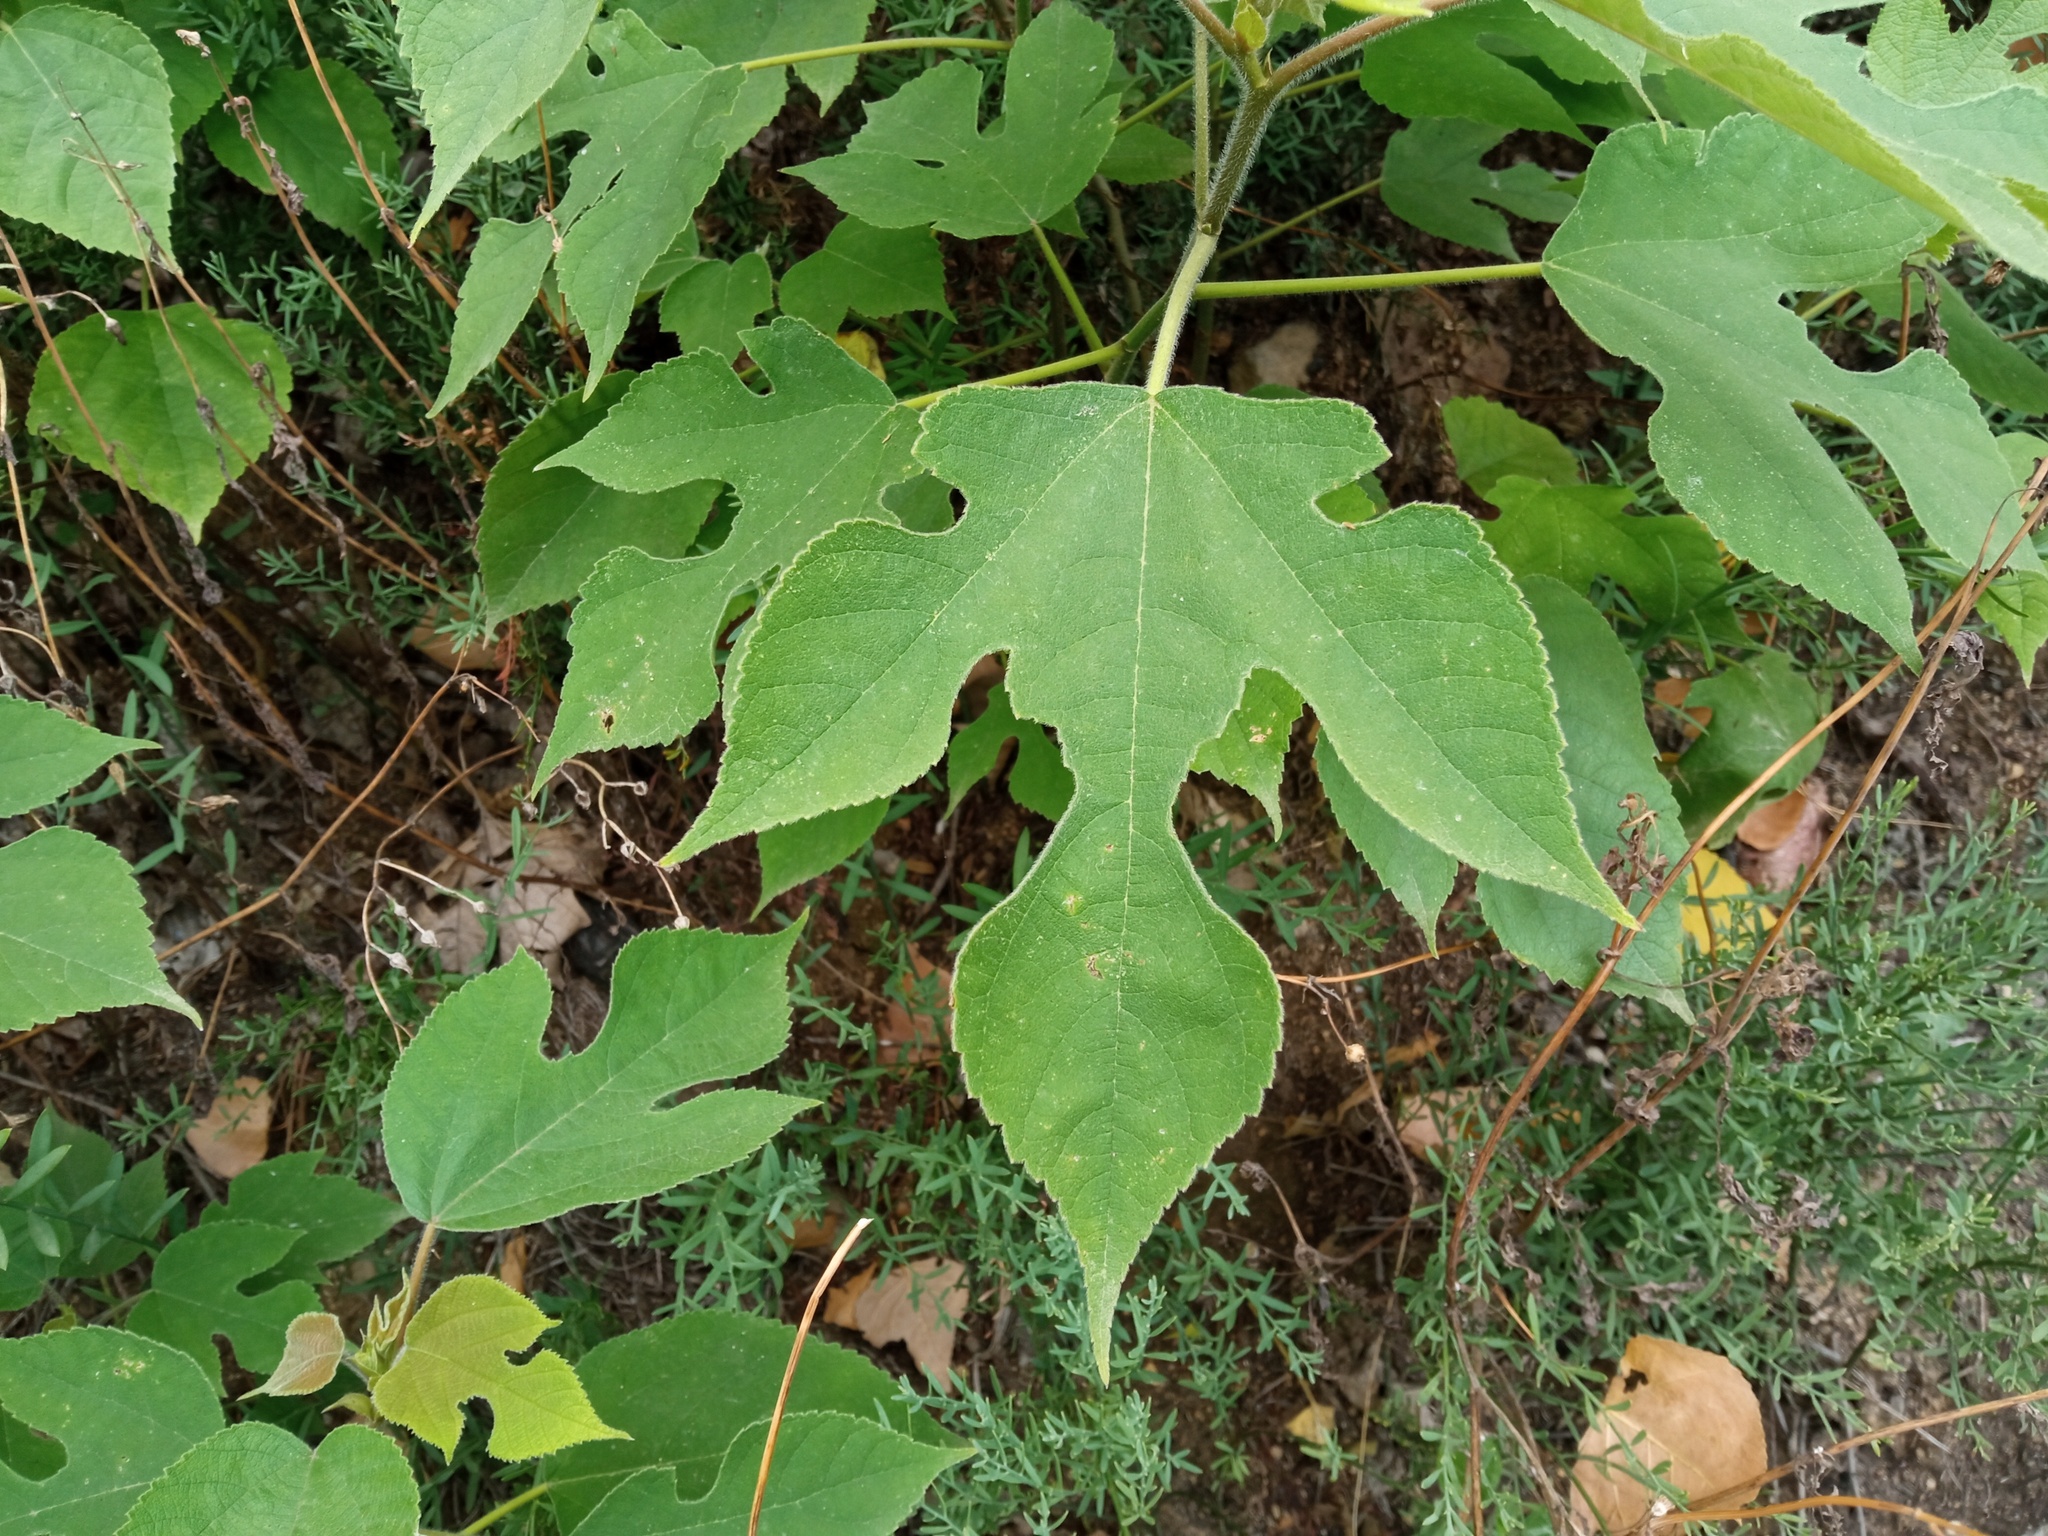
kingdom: Plantae
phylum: Tracheophyta
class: Magnoliopsida
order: Rosales
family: Moraceae
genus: Broussonetia
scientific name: Broussonetia papyrifera
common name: Paper mulberry
